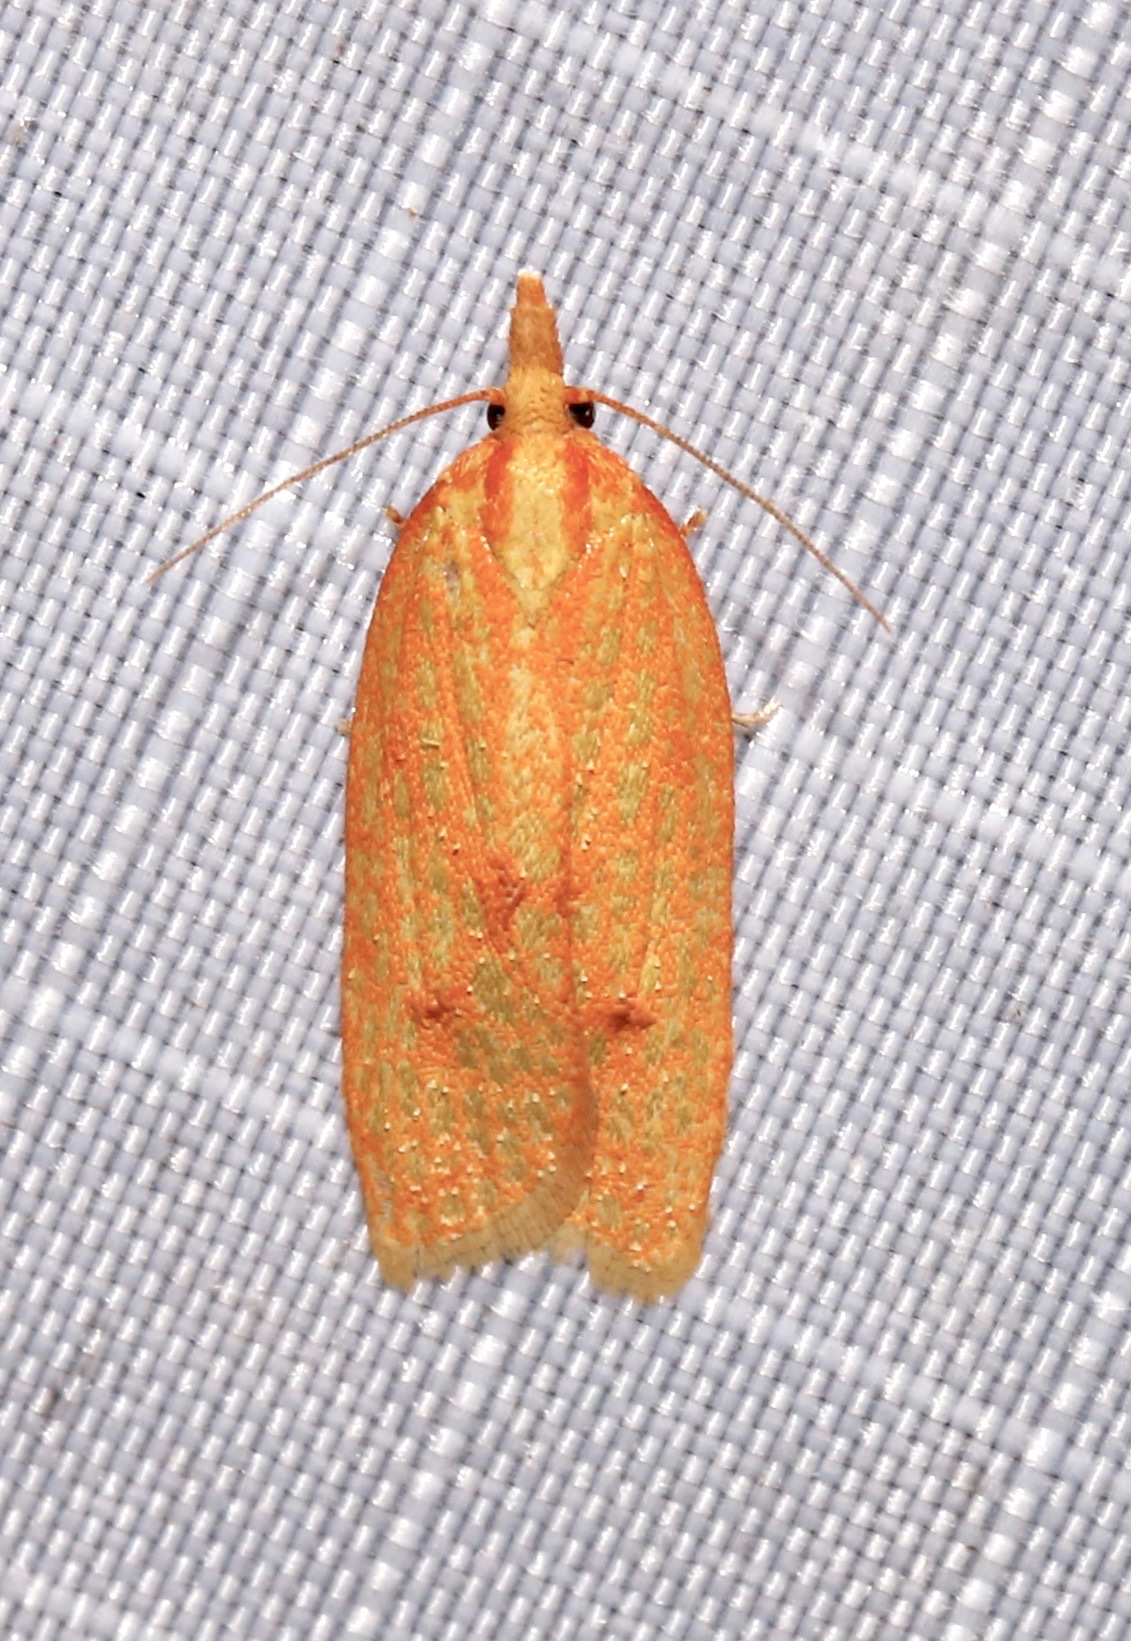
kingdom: Animalia
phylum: Arthropoda
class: Insecta
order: Lepidoptera
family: Tortricidae
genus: Sparganothis
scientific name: Sparganothis sulfureana
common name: Sparganothis fruitworm moth
